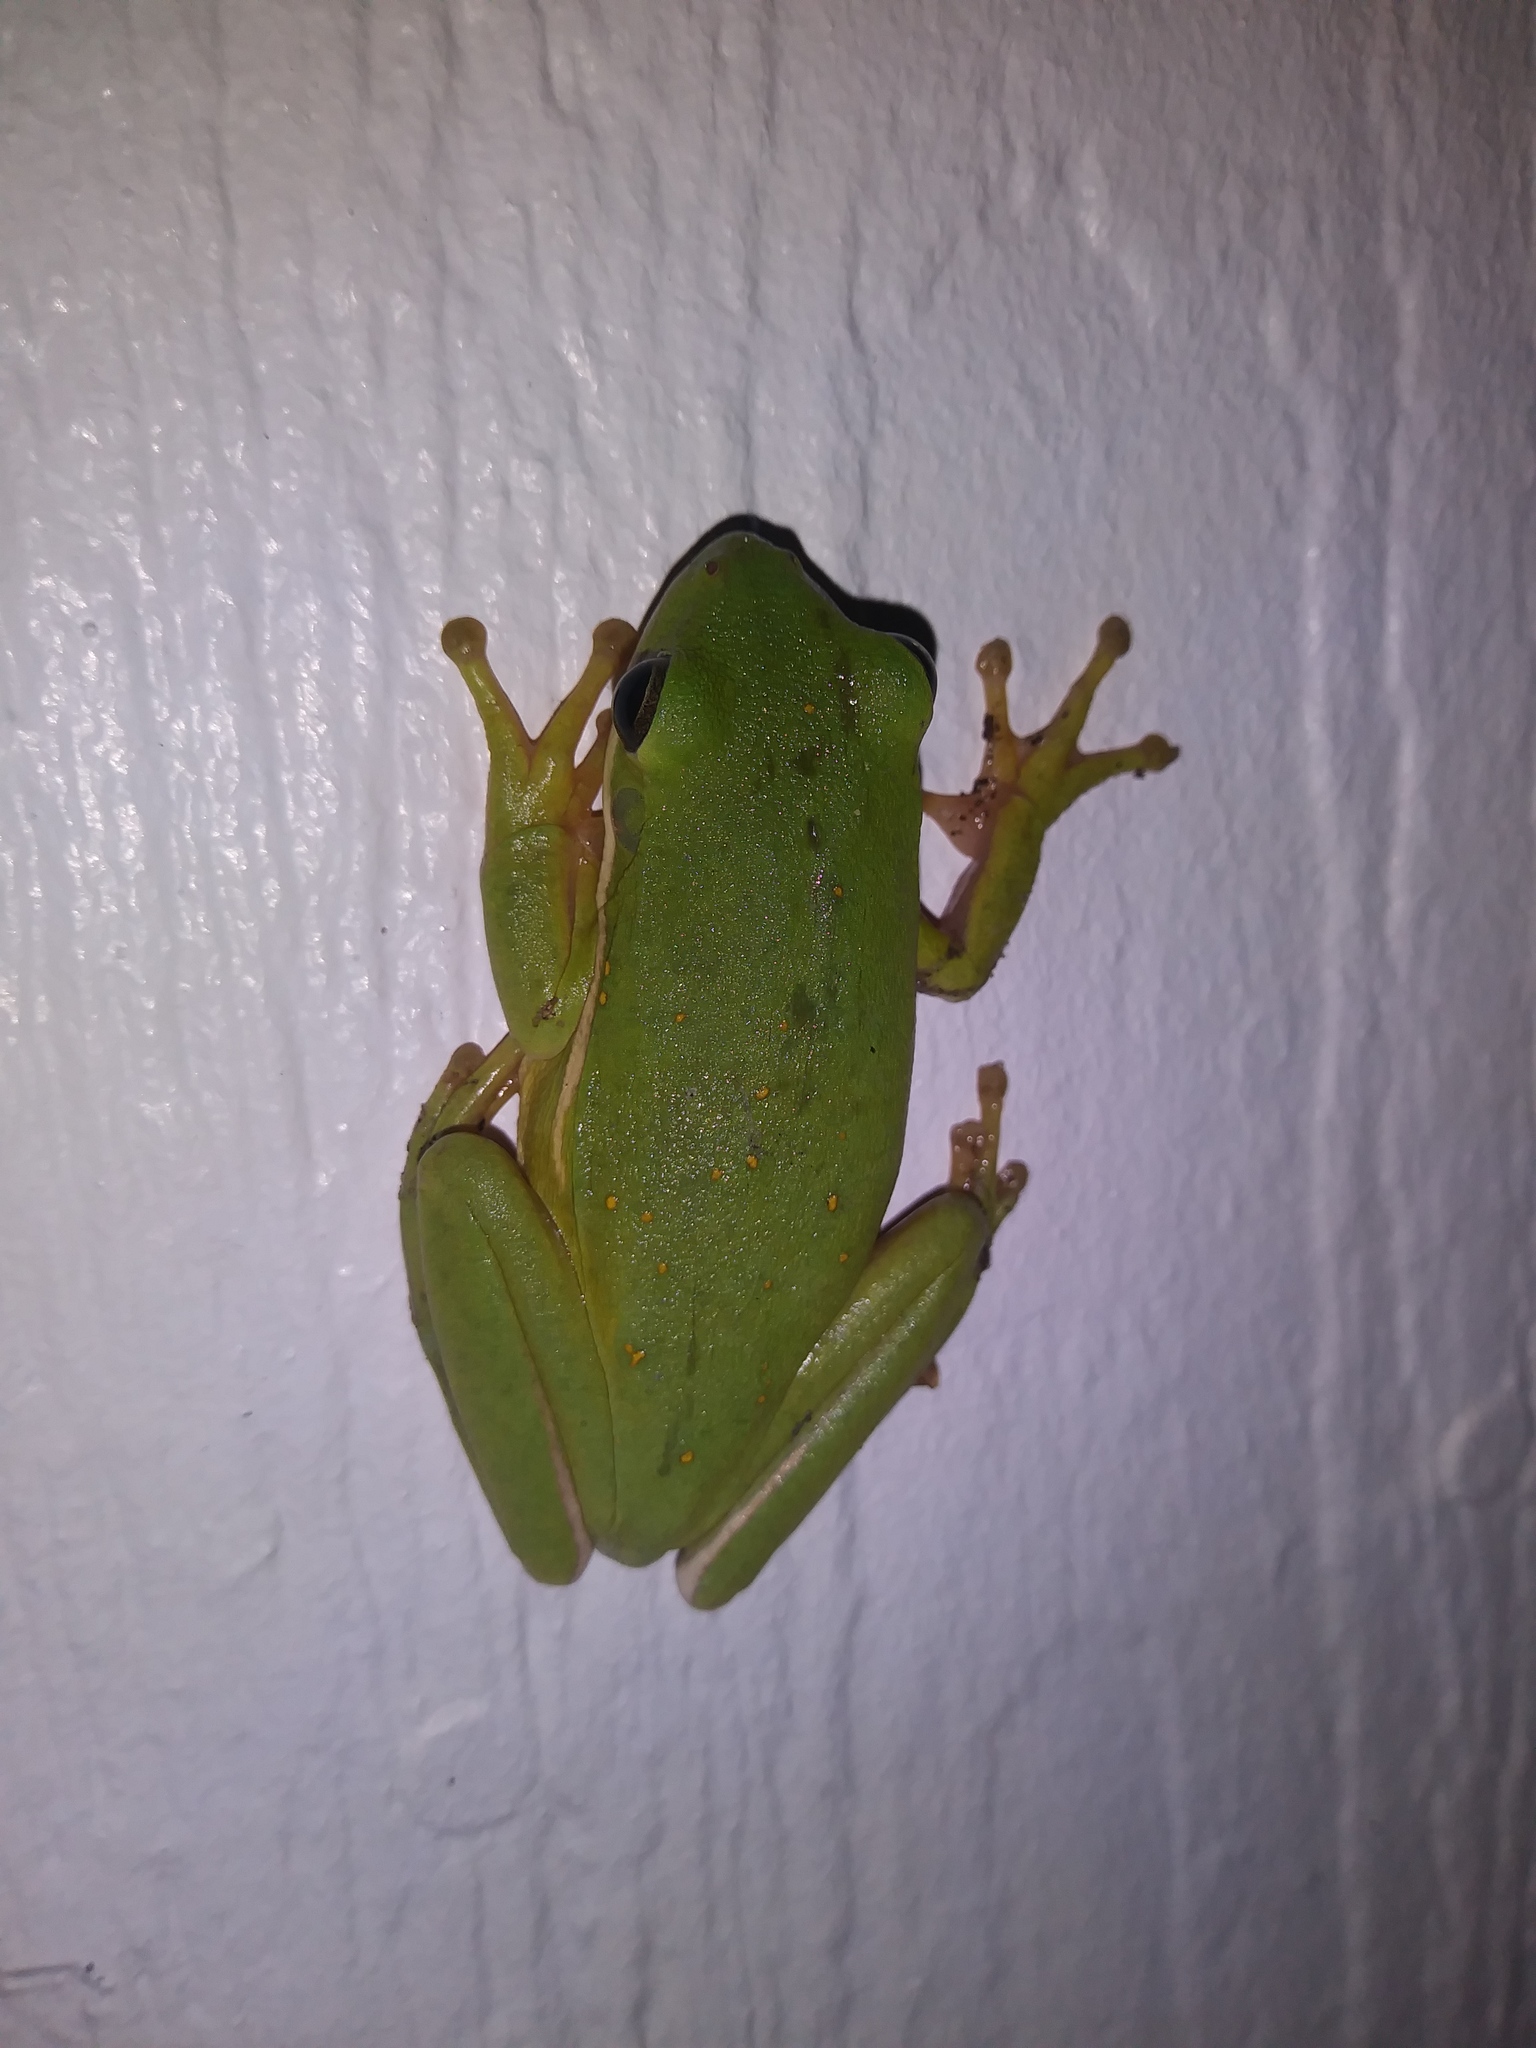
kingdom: Animalia
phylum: Chordata
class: Amphibia
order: Anura
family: Hylidae
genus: Dryophytes
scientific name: Dryophytes cinereus
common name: Green treefrog
